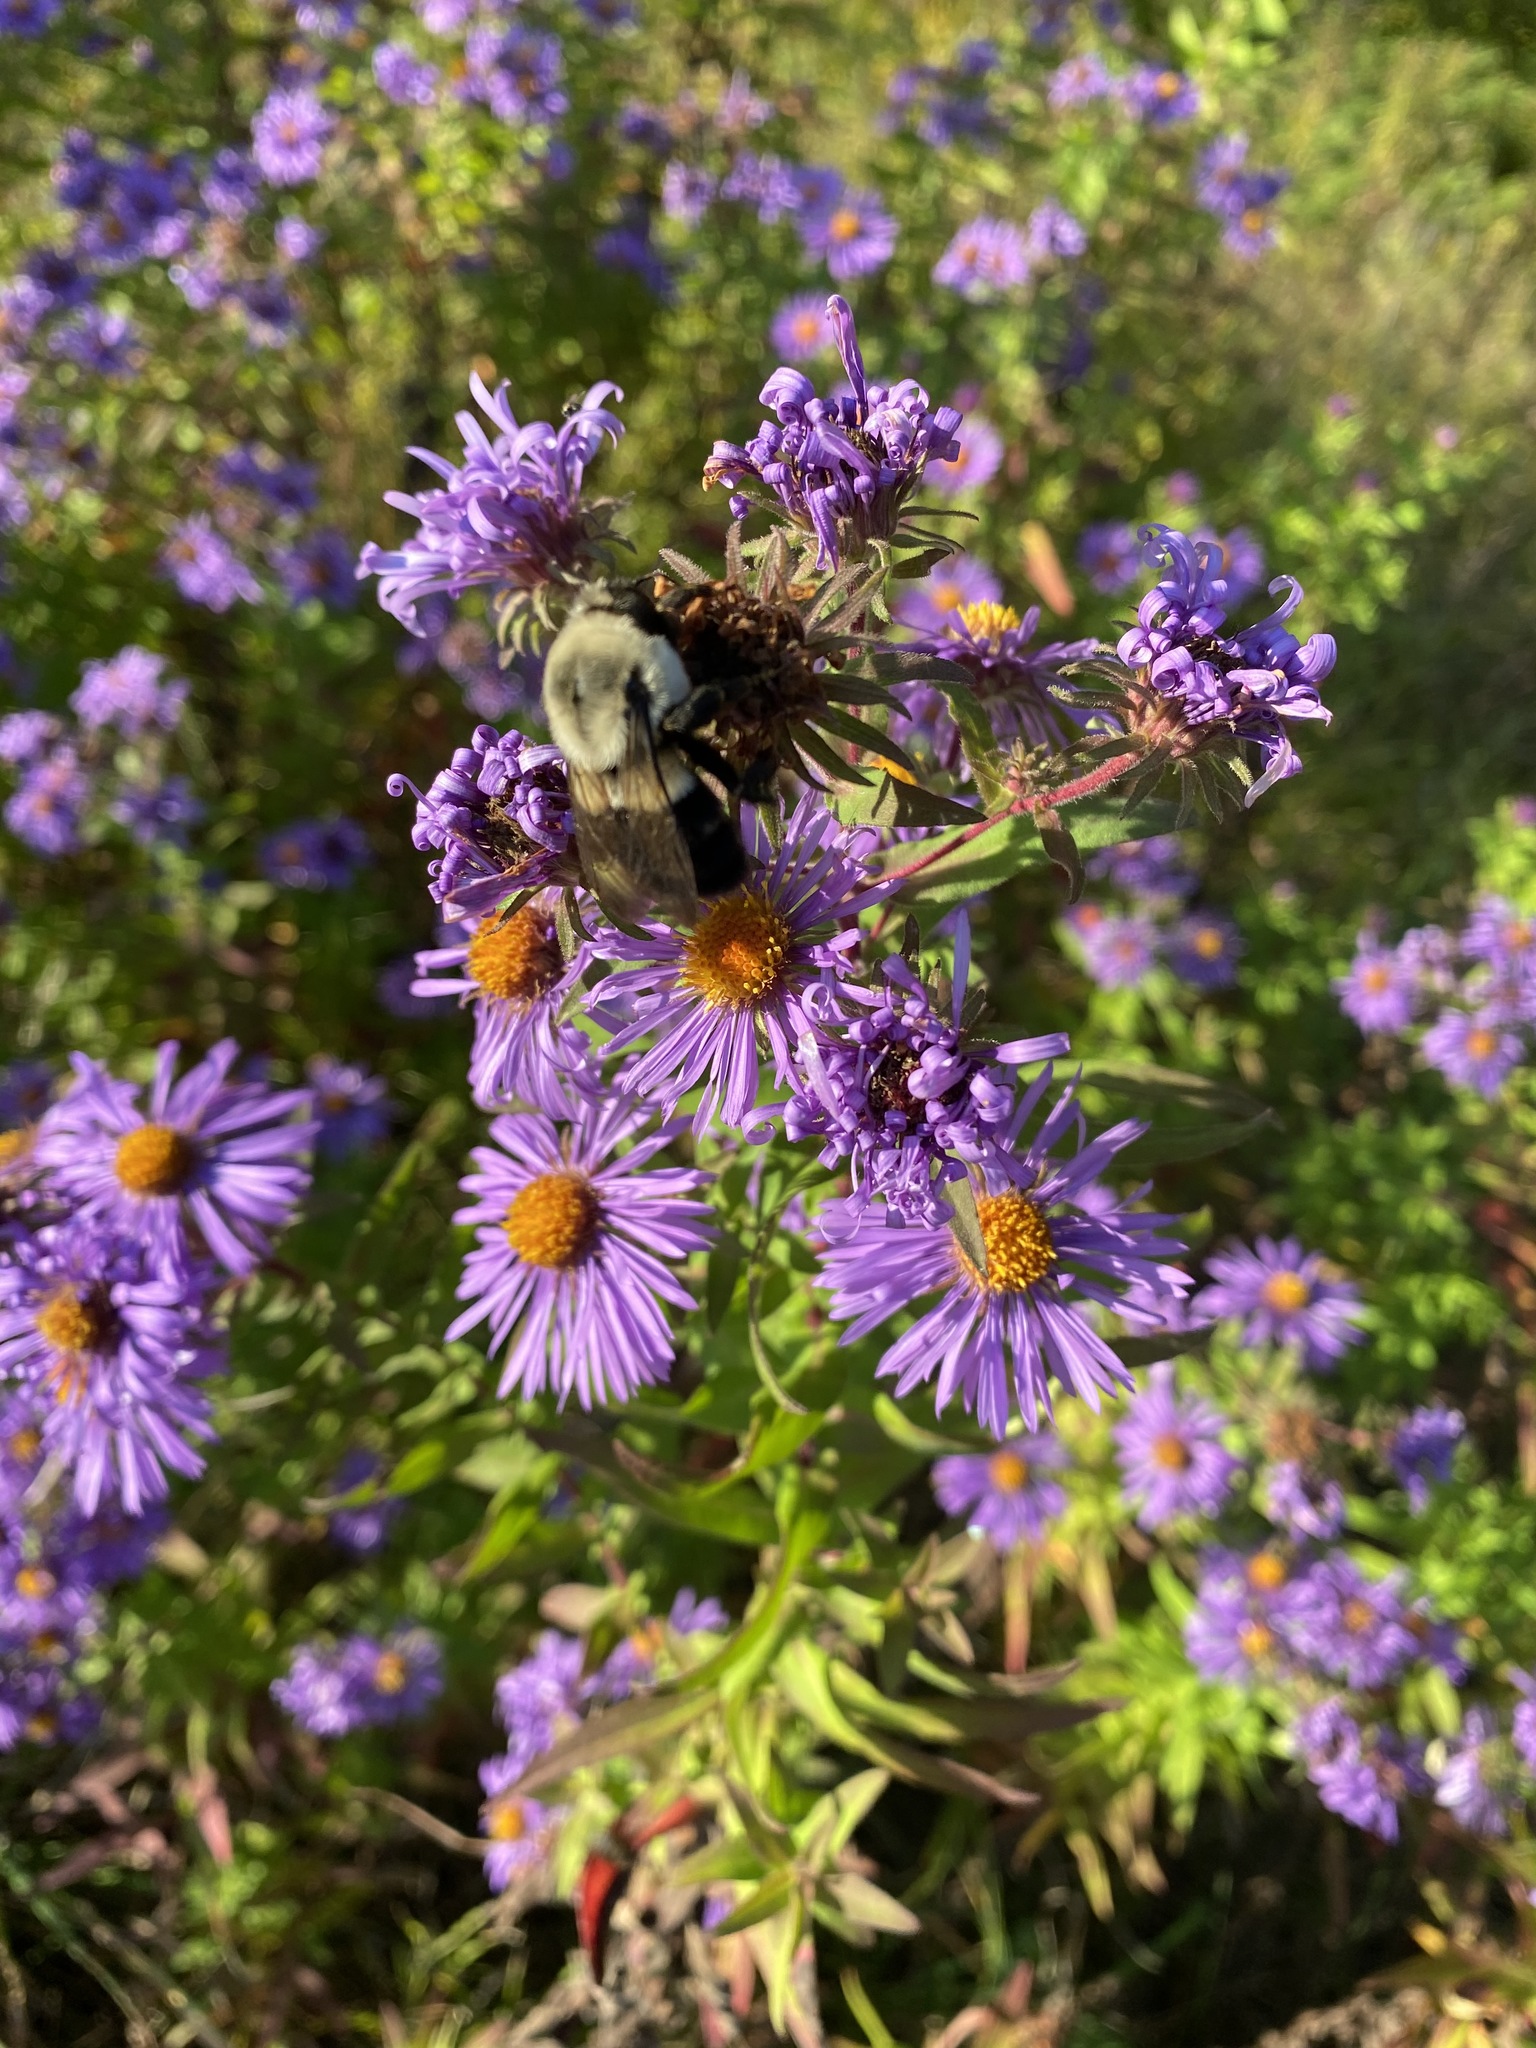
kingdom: Animalia
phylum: Arthropoda
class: Insecta
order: Hymenoptera
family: Apidae
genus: Bombus
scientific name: Bombus impatiens
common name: Common eastern bumble bee
